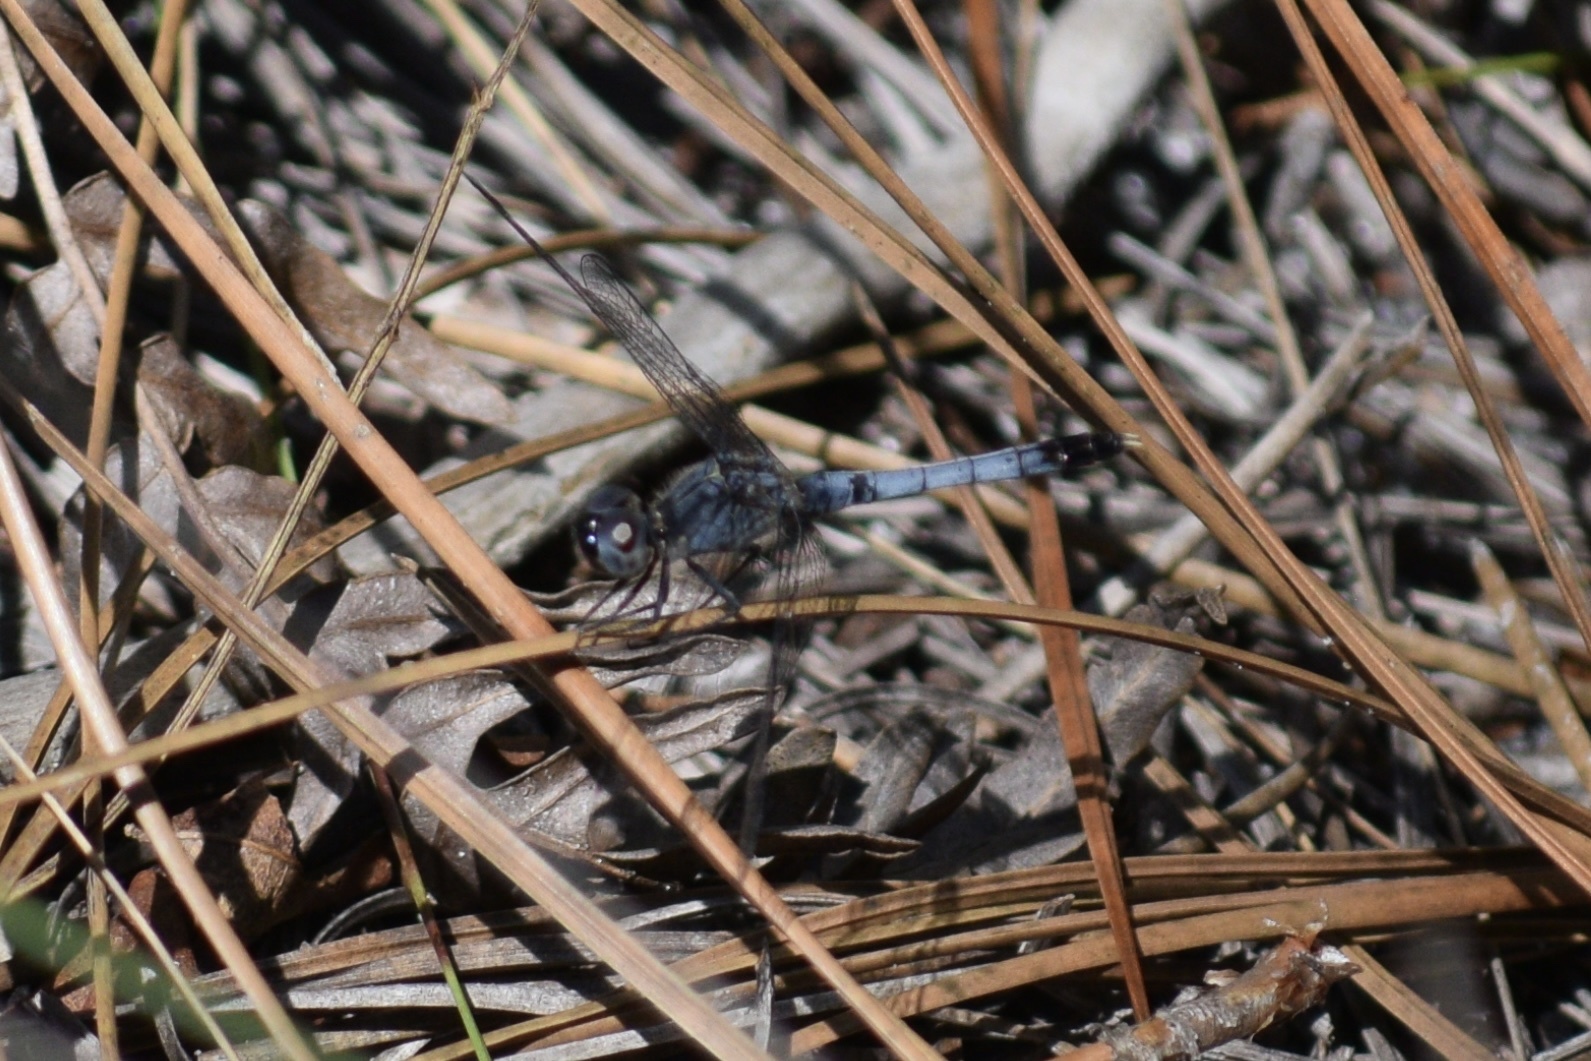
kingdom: Animalia
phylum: Arthropoda
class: Insecta
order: Odonata
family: Libellulidae
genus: Erythrodiplax
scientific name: Erythrodiplax minuscula
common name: Little blue dragonlet
